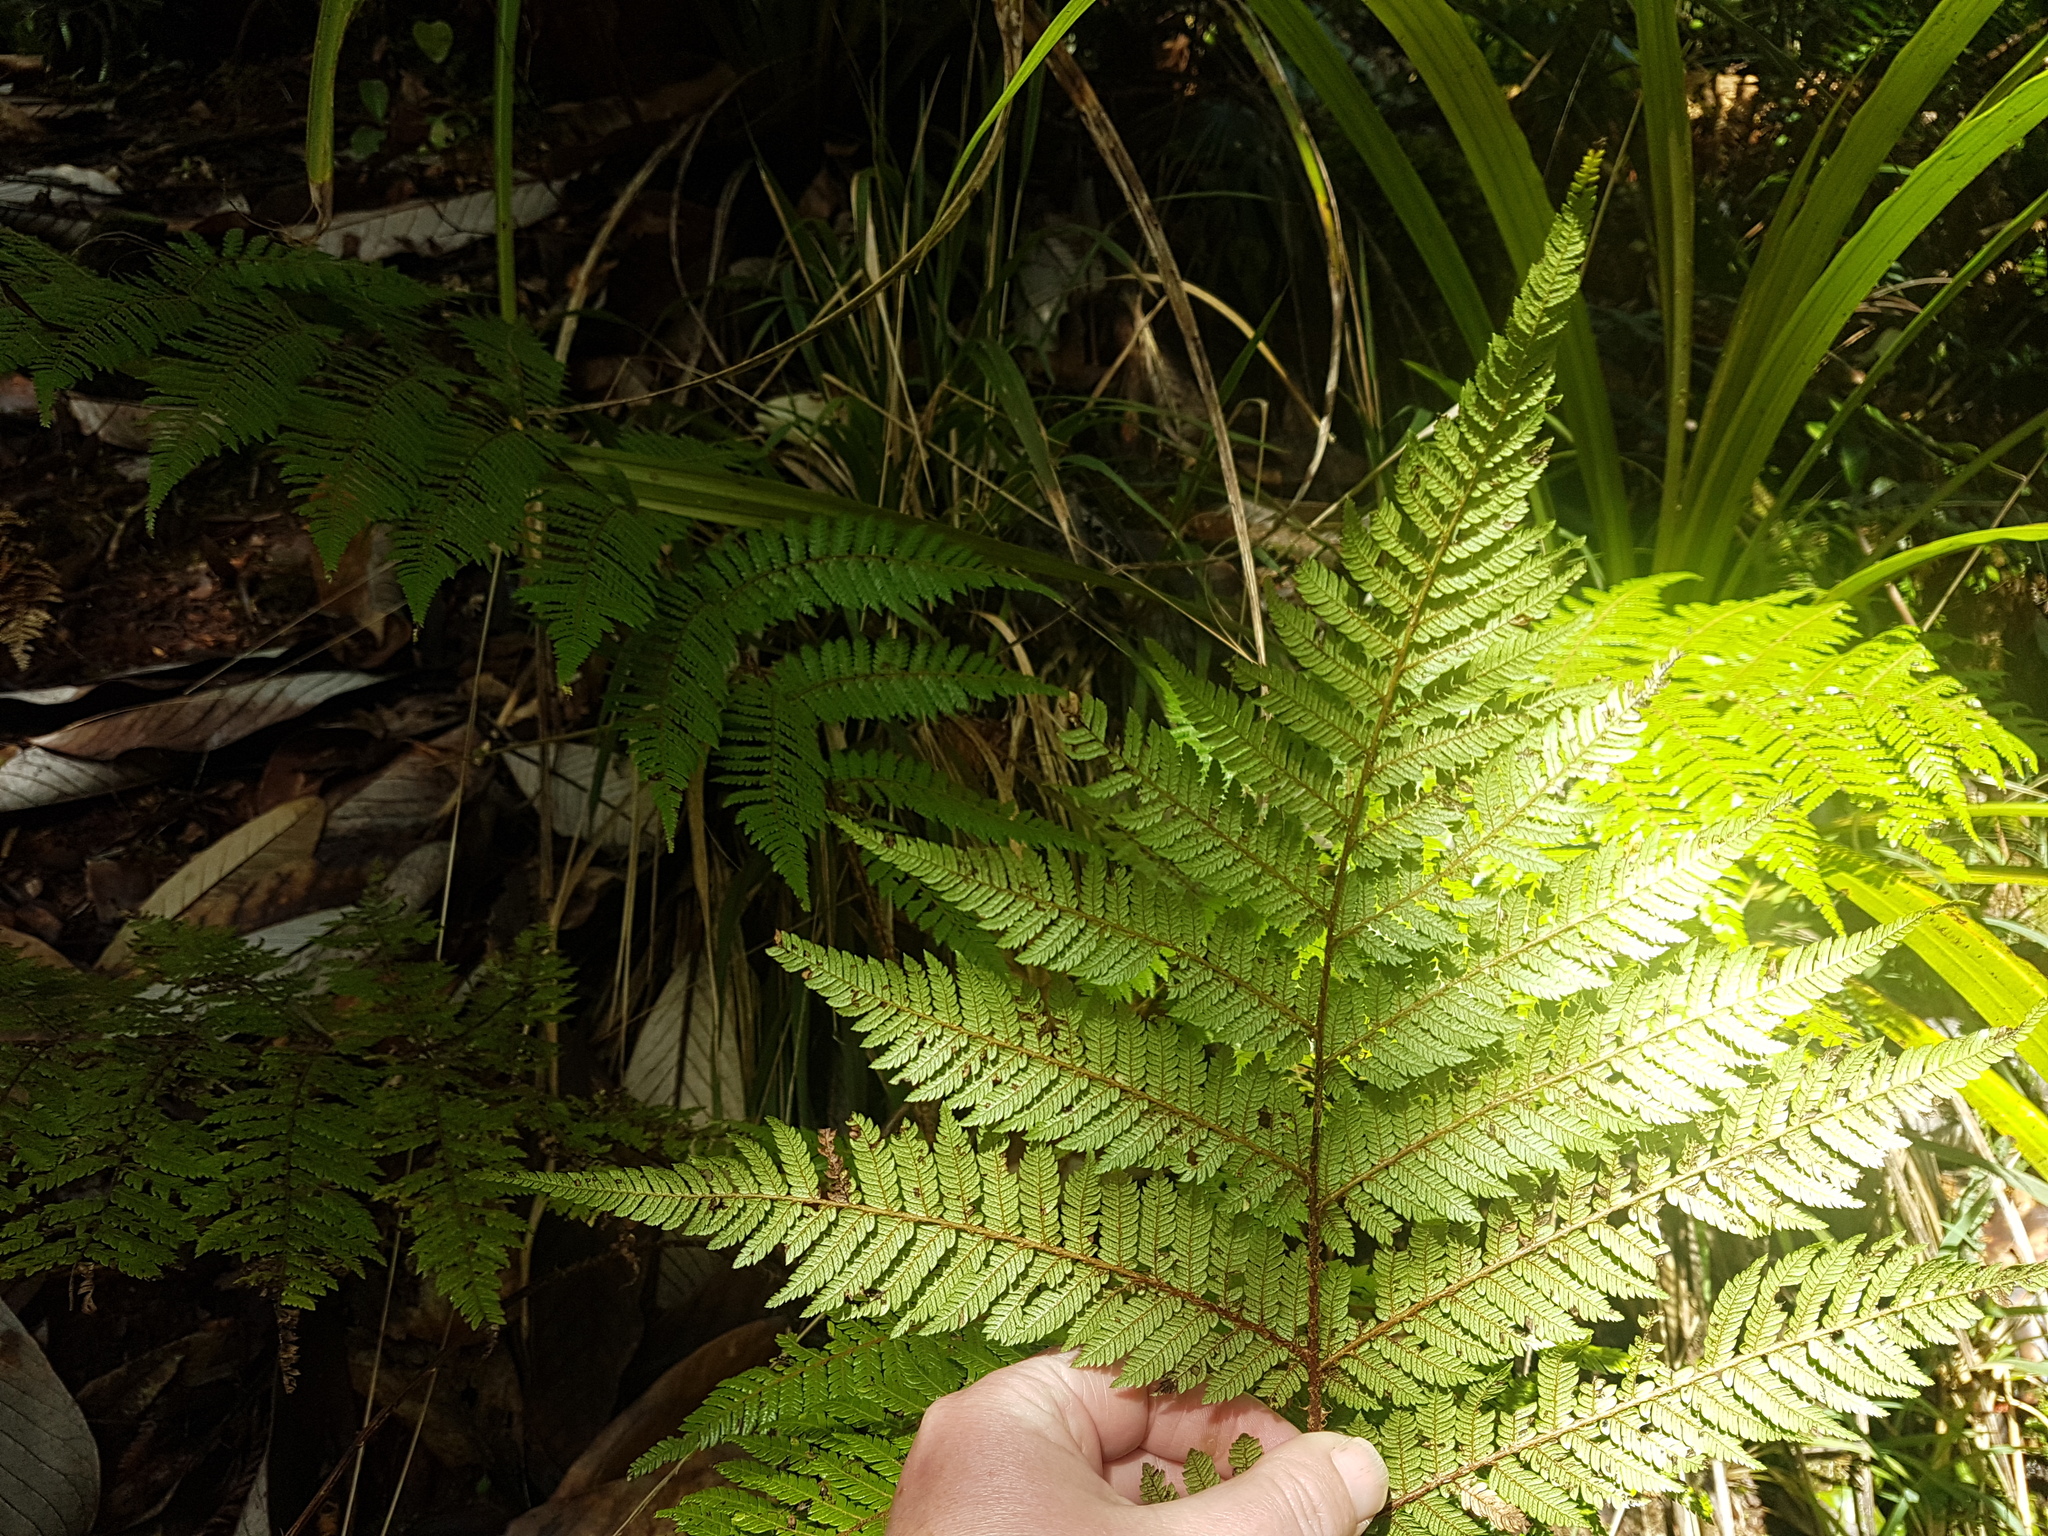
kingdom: Plantae
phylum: Tracheophyta
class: Polypodiopsida
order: Cyatheales
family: Cyatheaceae
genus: Alsophila
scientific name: Alsophila smithii
